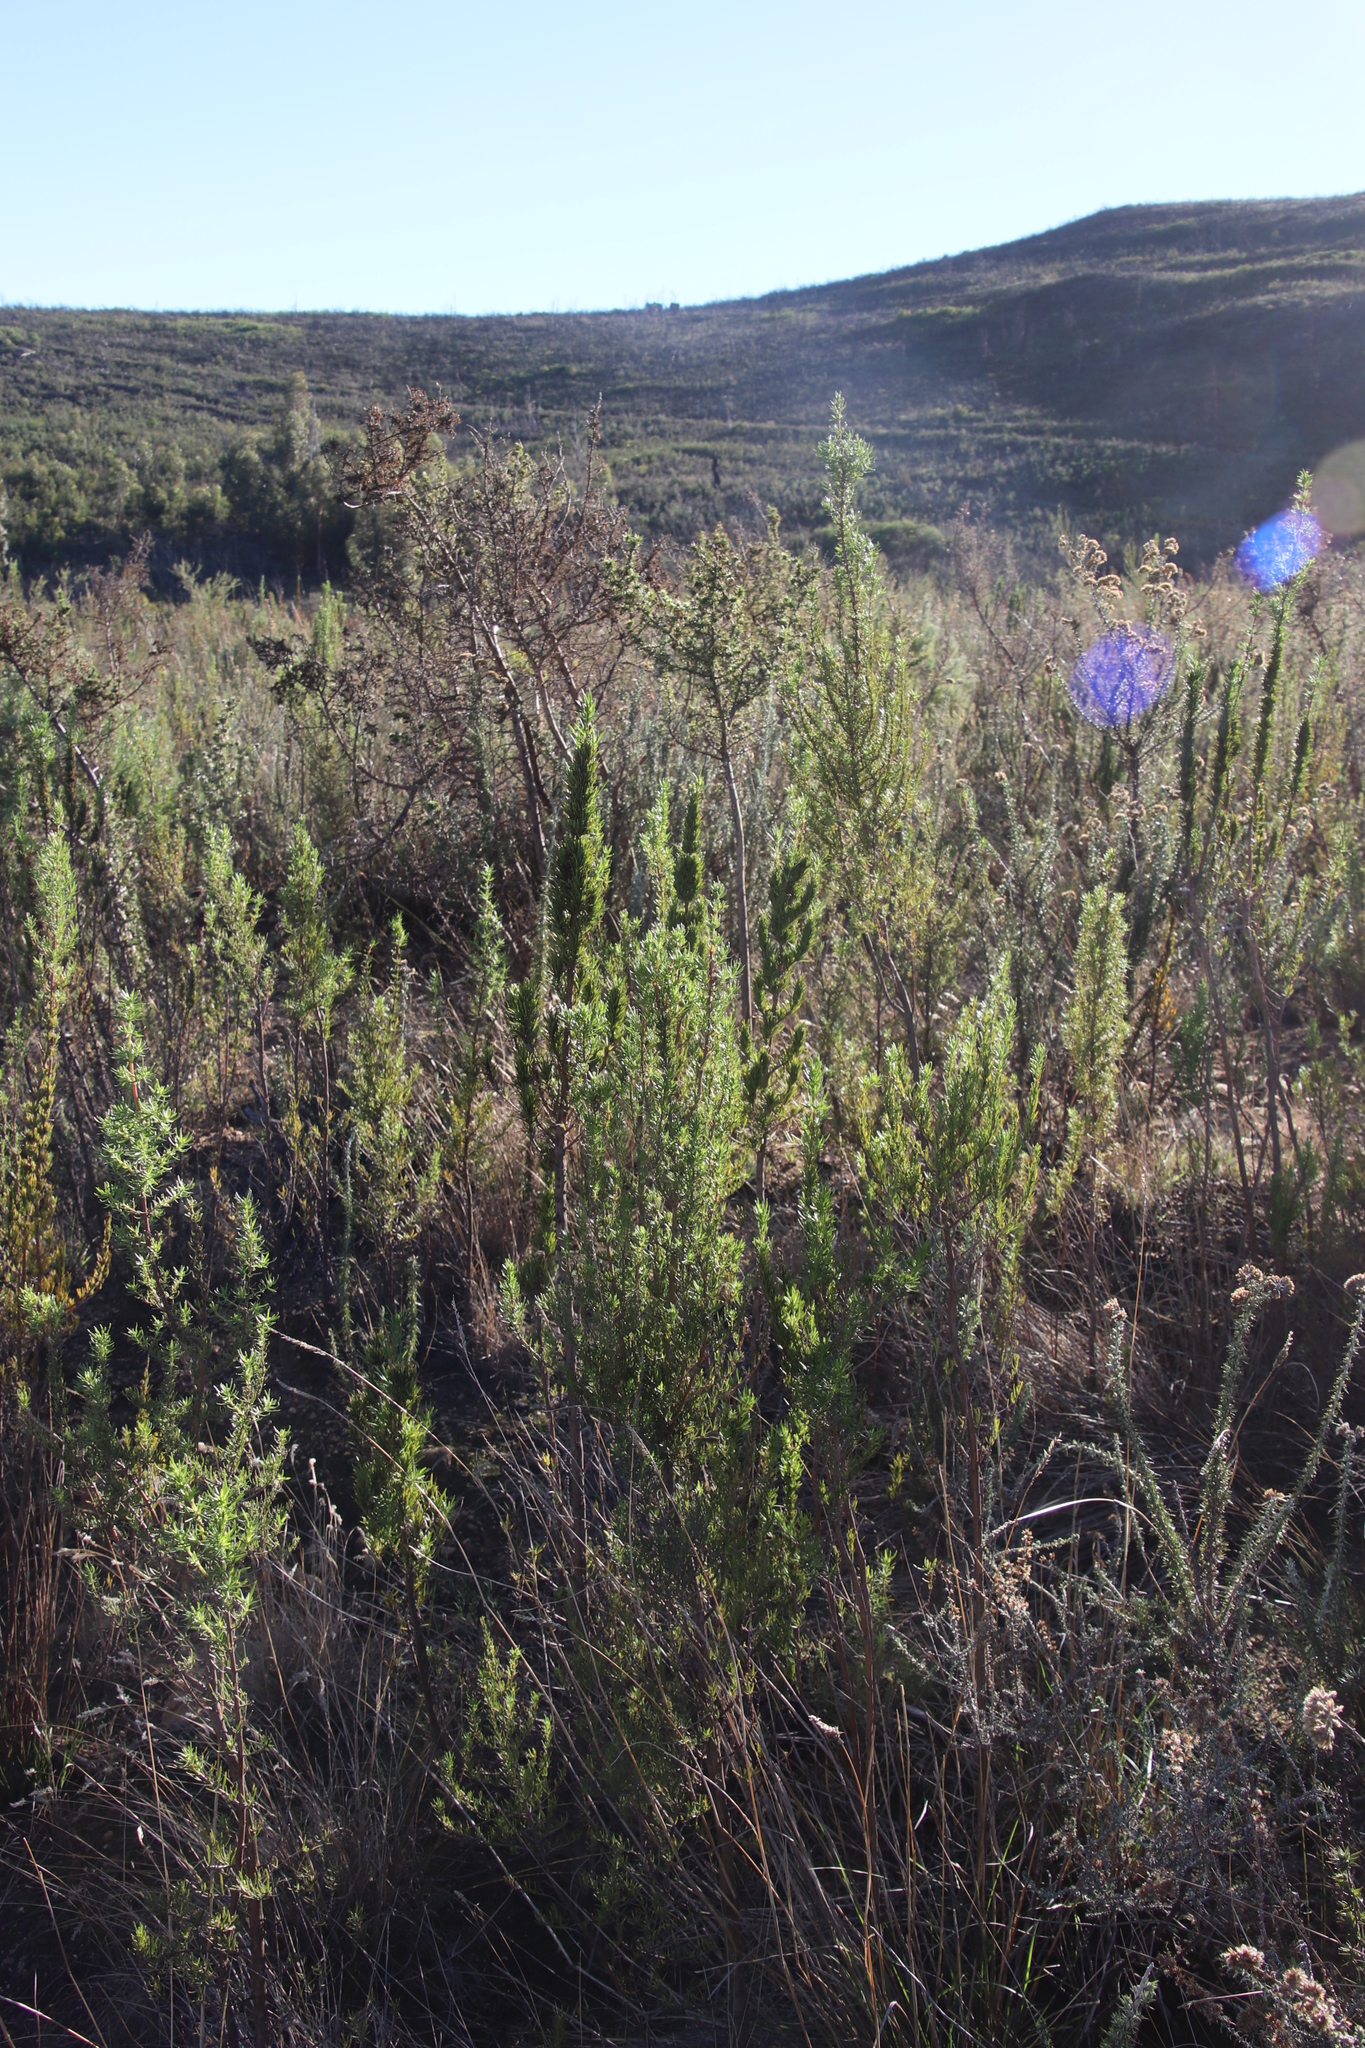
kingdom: Plantae
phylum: Tracheophyta
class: Magnoliopsida
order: Gentianales
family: Rubiaceae
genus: Anthospermum
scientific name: Anthospermum aethiopicum
